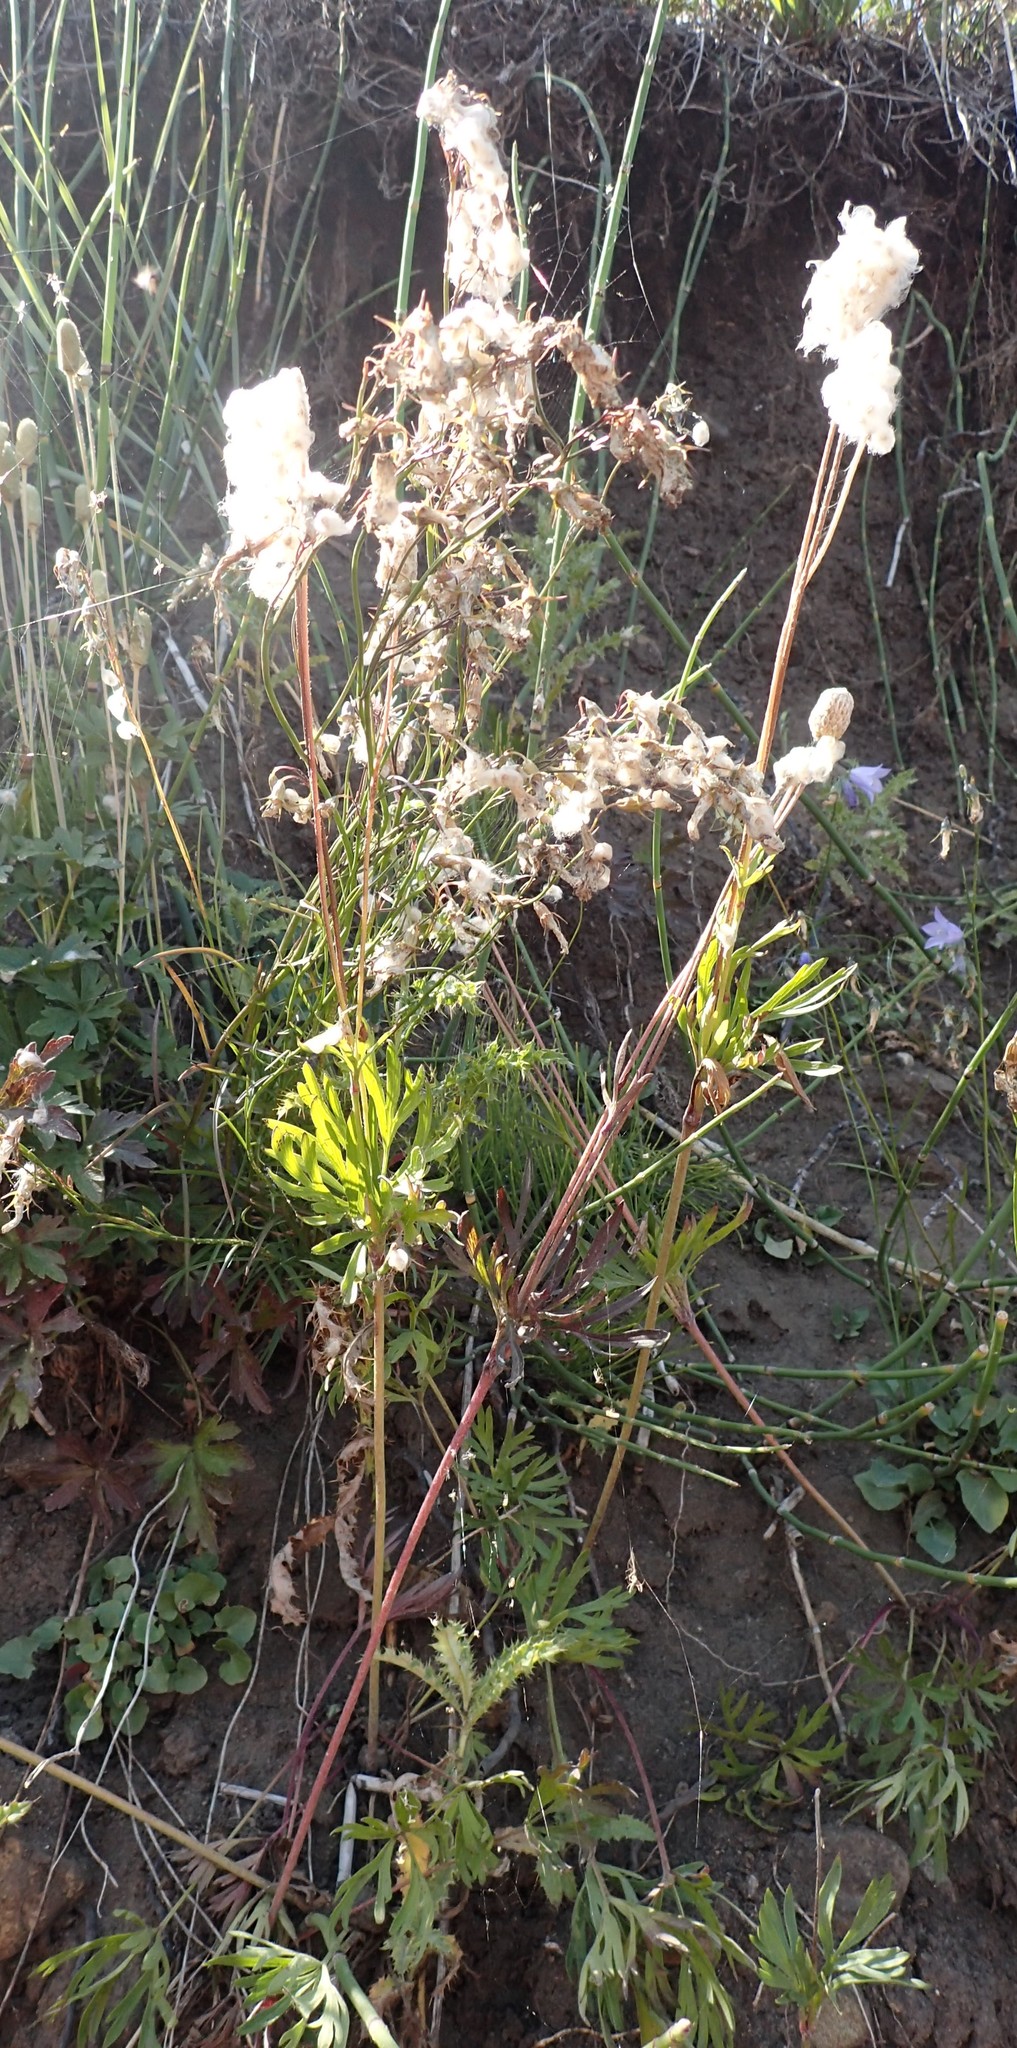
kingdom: Plantae
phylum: Tracheophyta
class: Magnoliopsida
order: Ranunculales
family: Ranunculaceae
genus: Anemone
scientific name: Anemone cylindrica
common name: Candle anemone
